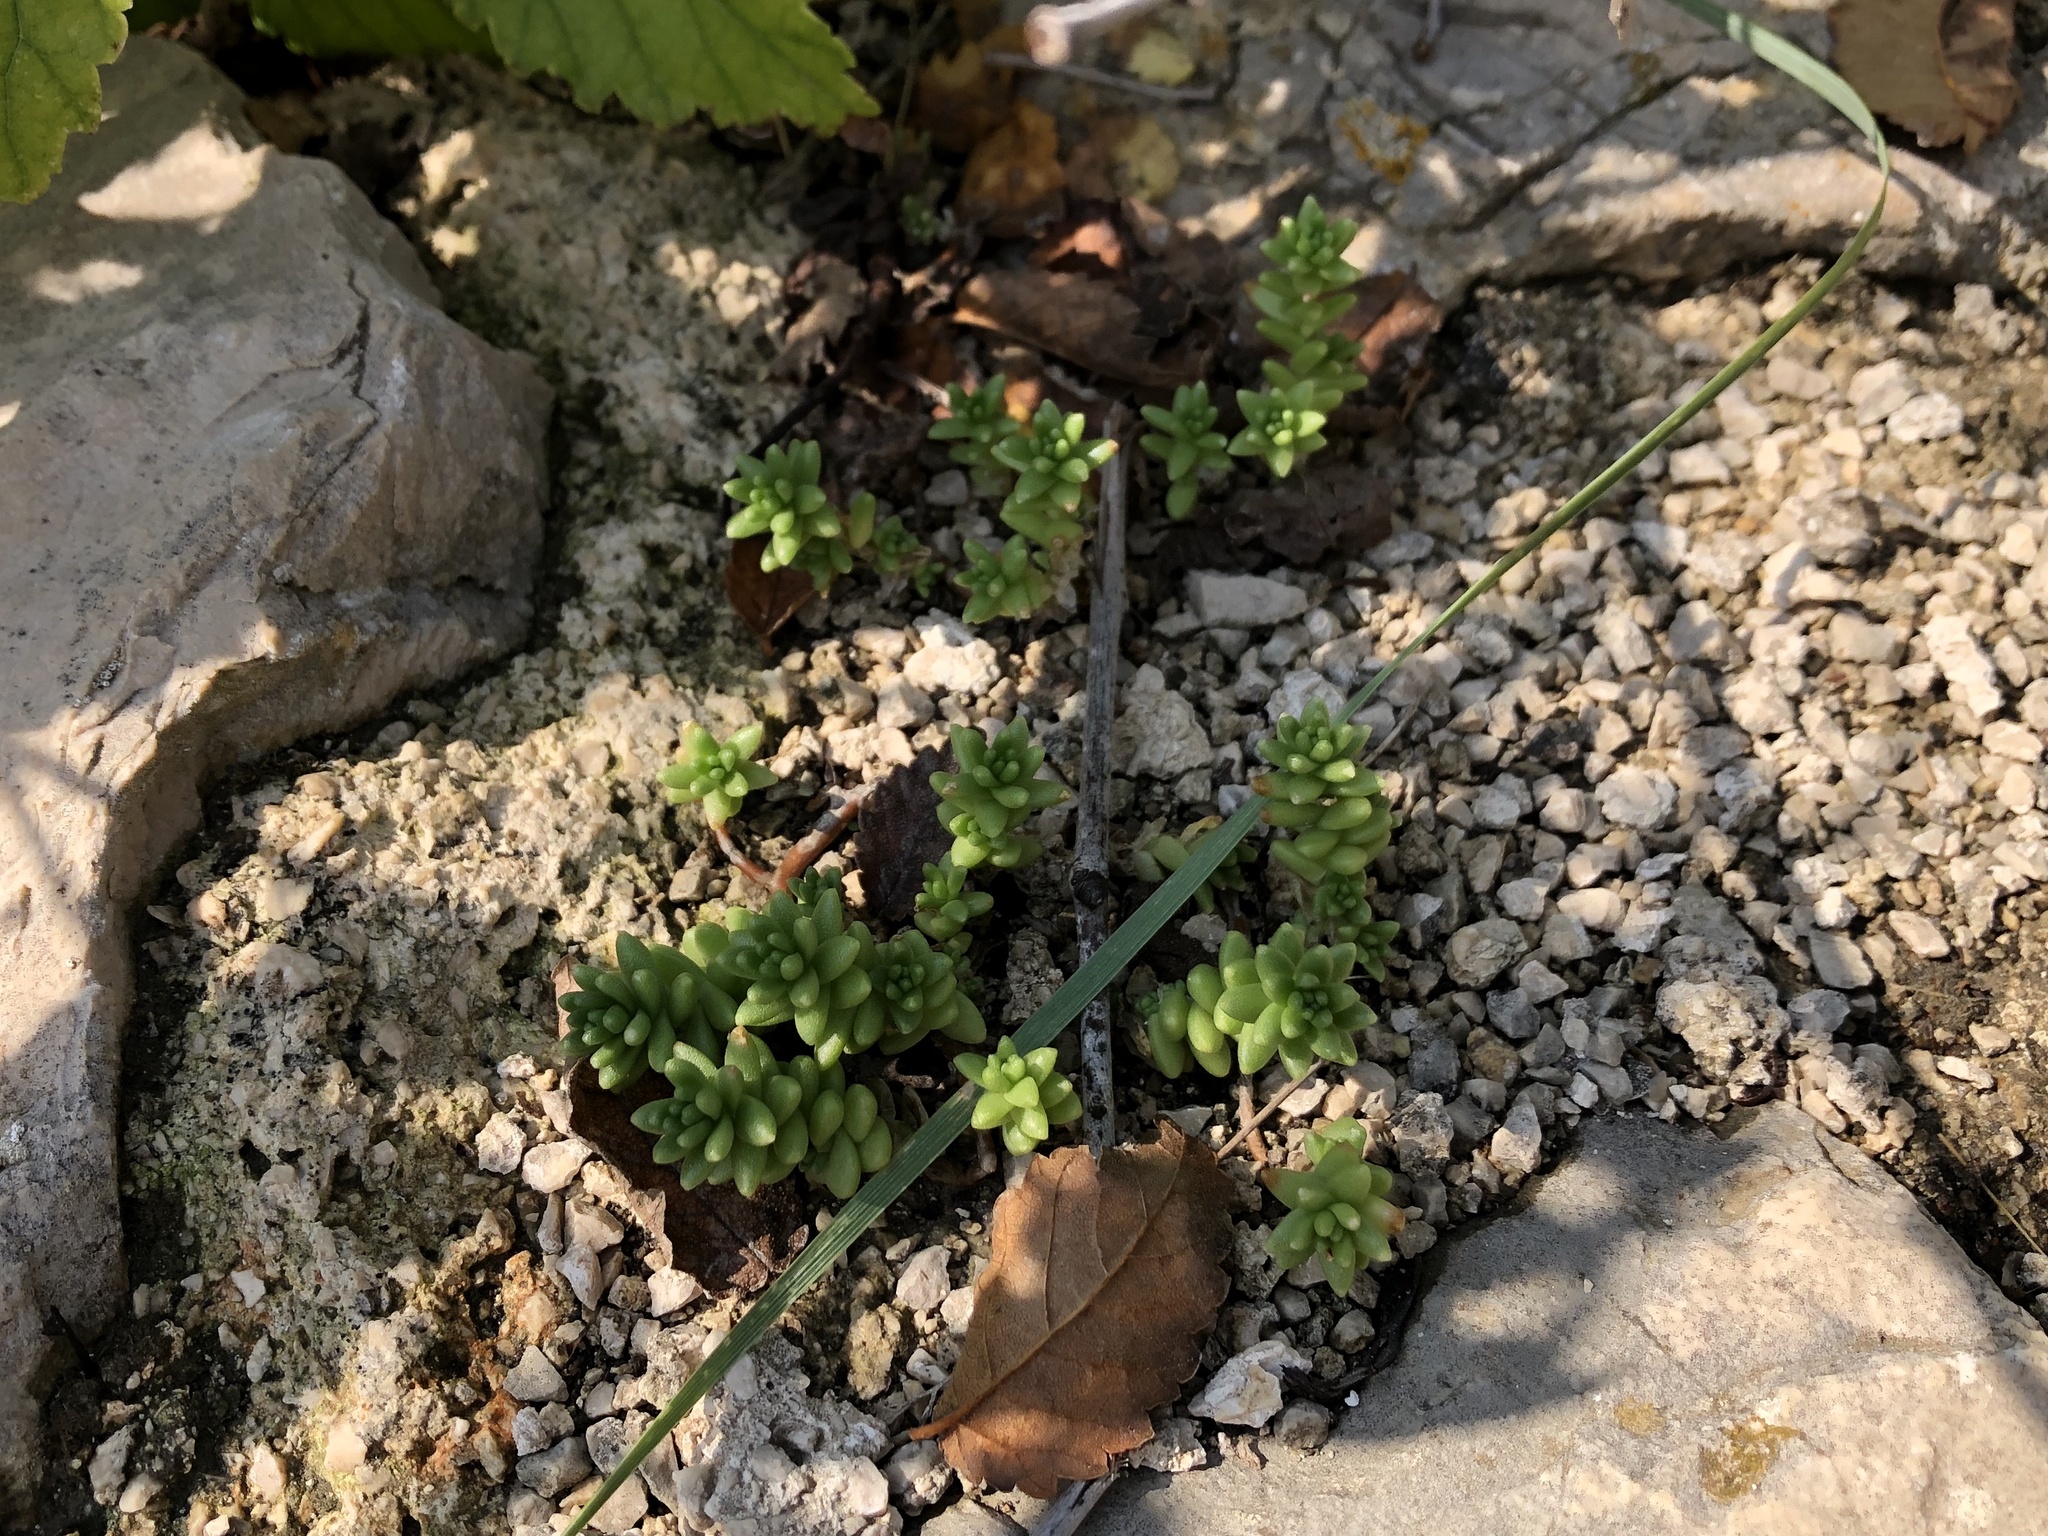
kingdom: Plantae
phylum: Tracheophyta
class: Magnoliopsida
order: Saxifragales
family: Crassulaceae
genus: Sedum
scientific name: Sedum acre
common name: Biting stonecrop
